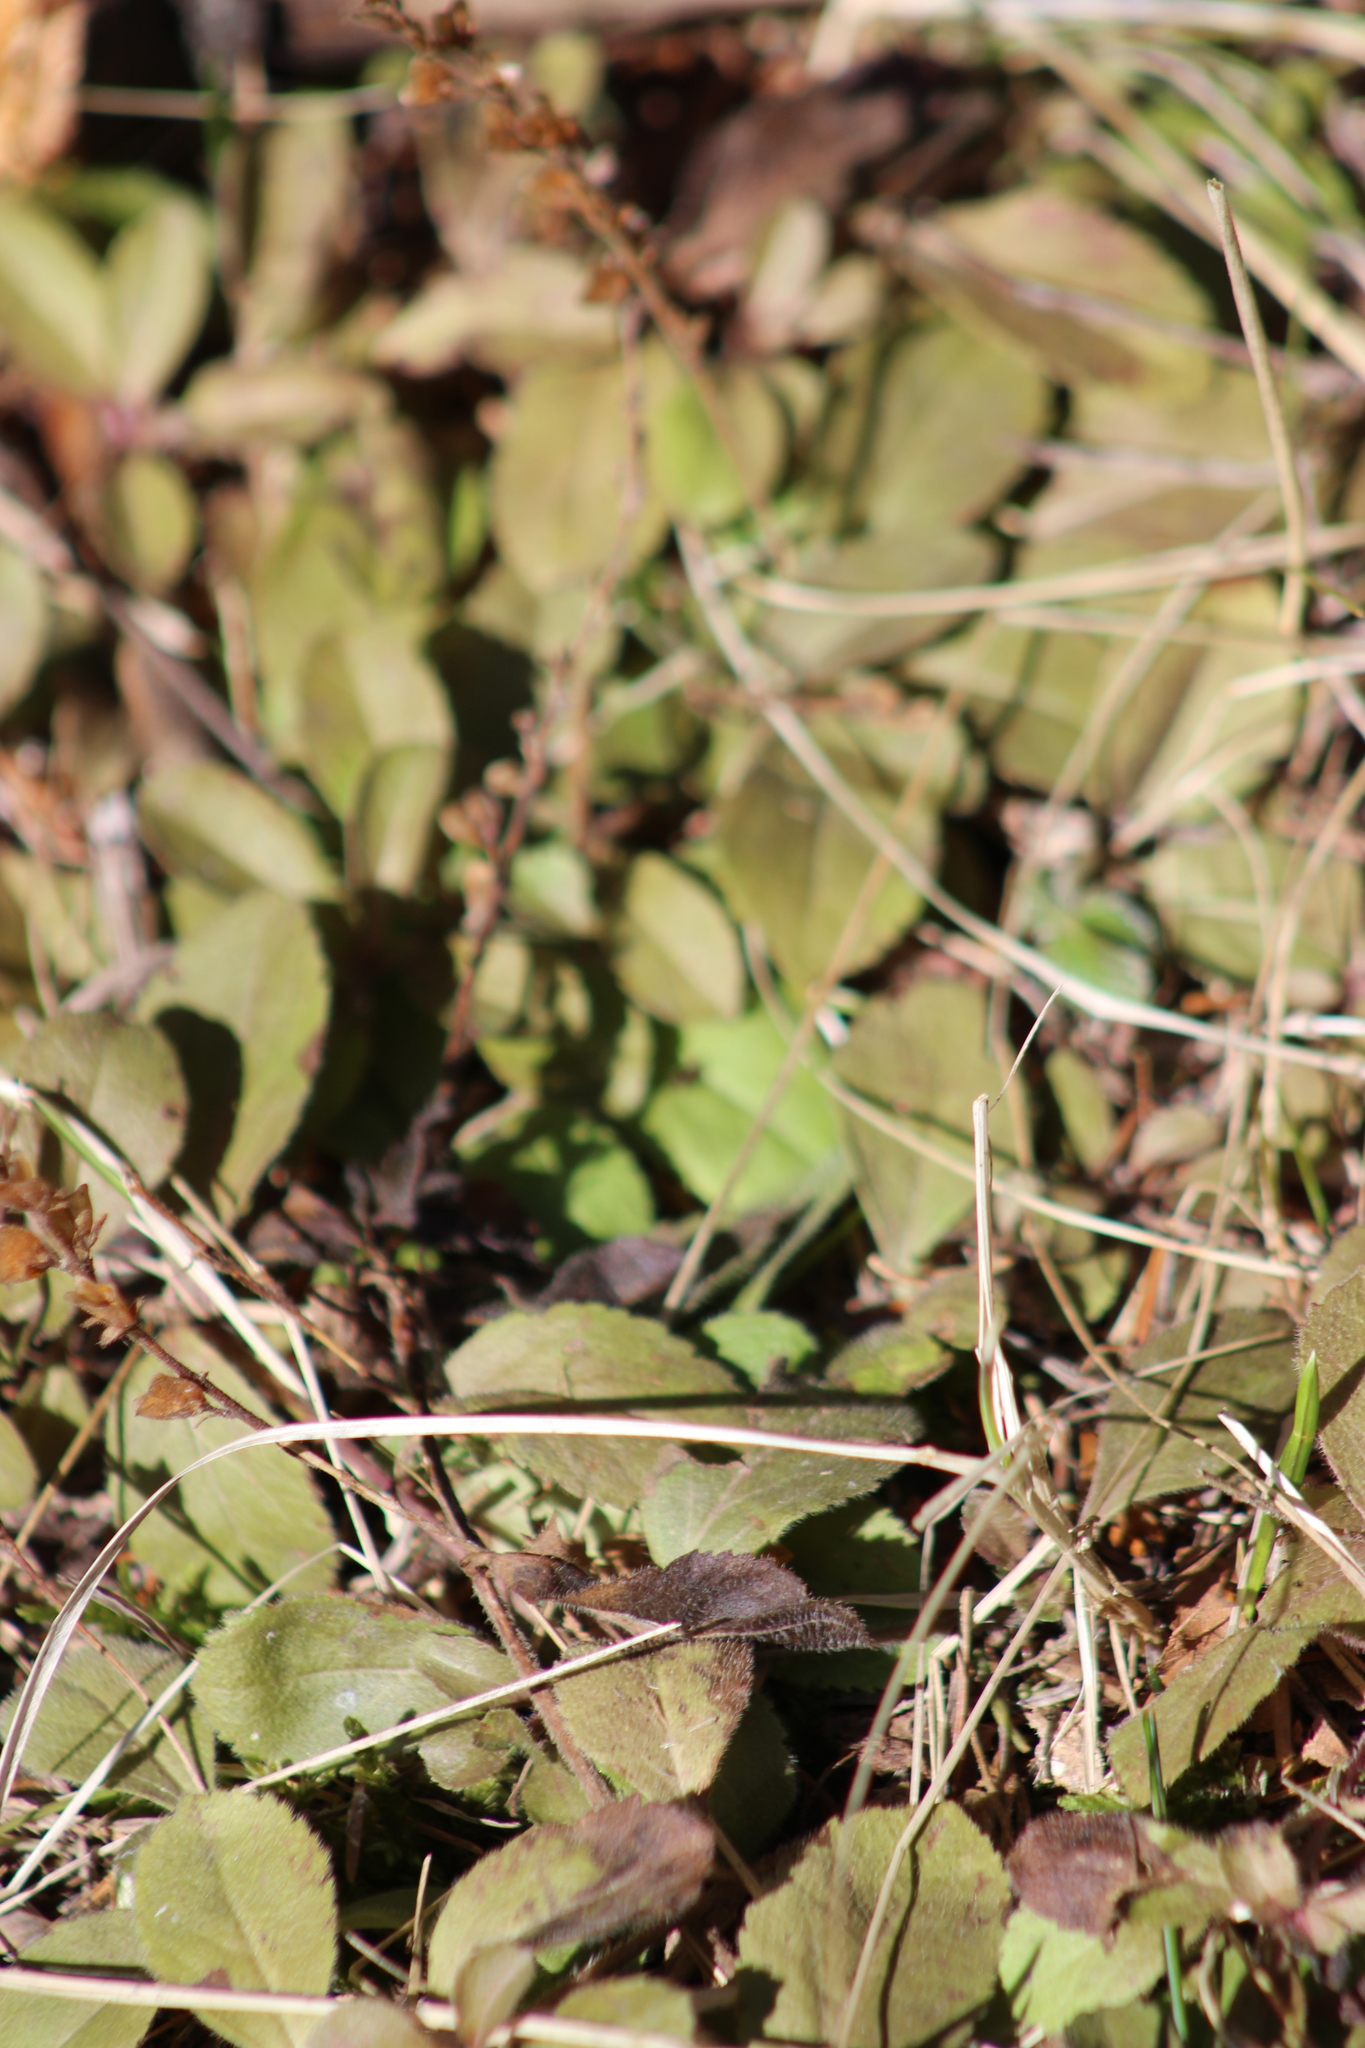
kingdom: Plantae
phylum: Tracheophyta
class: Magnoliopsida
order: Lamiales
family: Plantaginaceae
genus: Veronica
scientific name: Veronica officinalis
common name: Common speedwell
